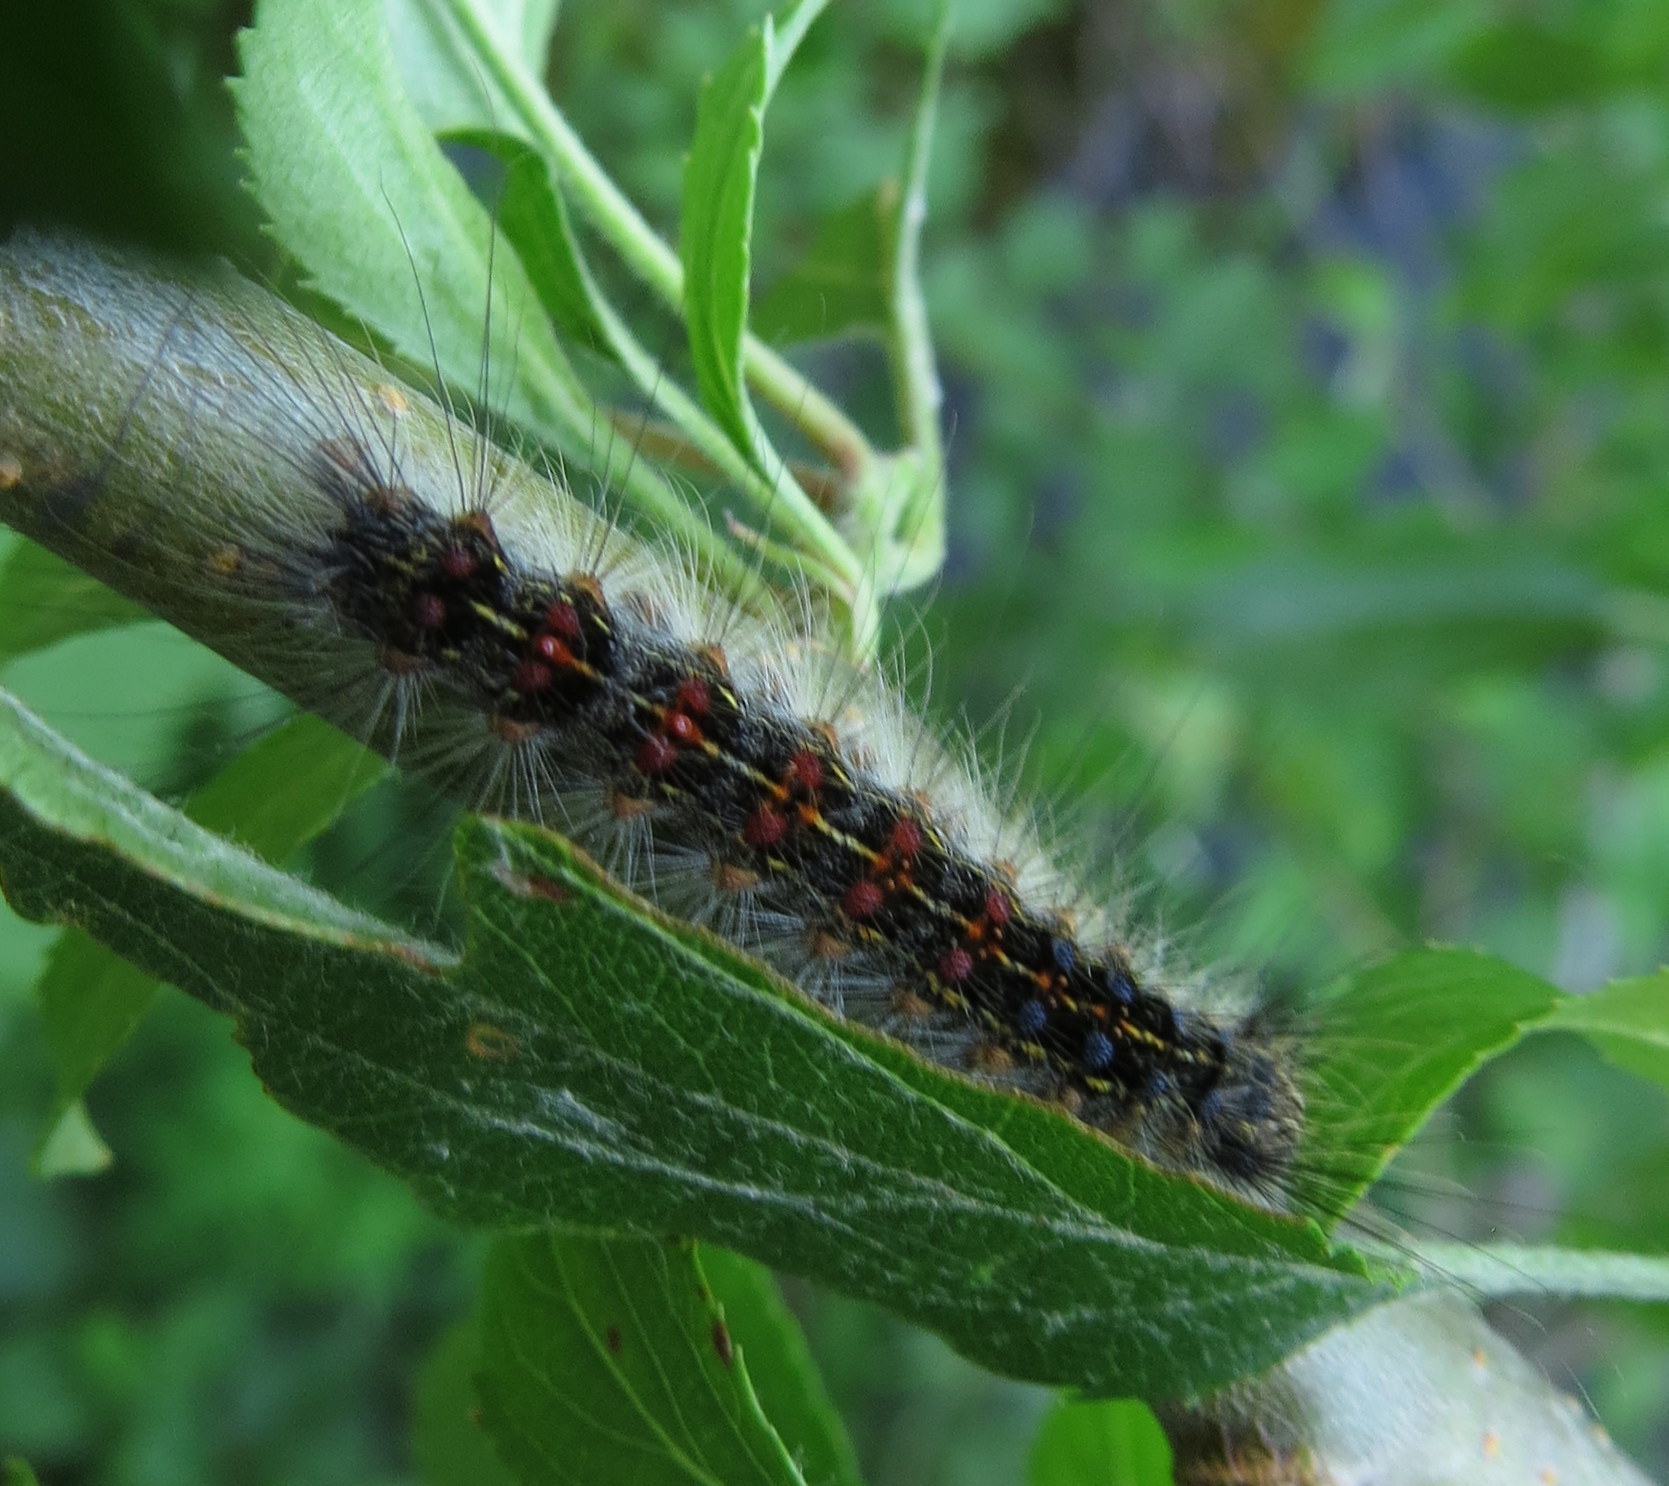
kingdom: Animalia
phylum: Arthropoda
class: Insecta
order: Lepidoptera
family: Erebidae
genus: Lymantria
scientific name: Lymantria dispar
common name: Gypsy moth
